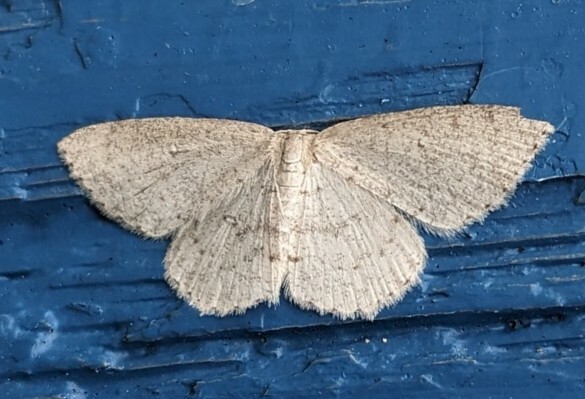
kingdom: Animalia
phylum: Arthropoda
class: Insecta
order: Lepidoptera
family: Geometridae
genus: Cyclophora
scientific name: Cyclophora pendulinaria
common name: Sweet fern geometer
